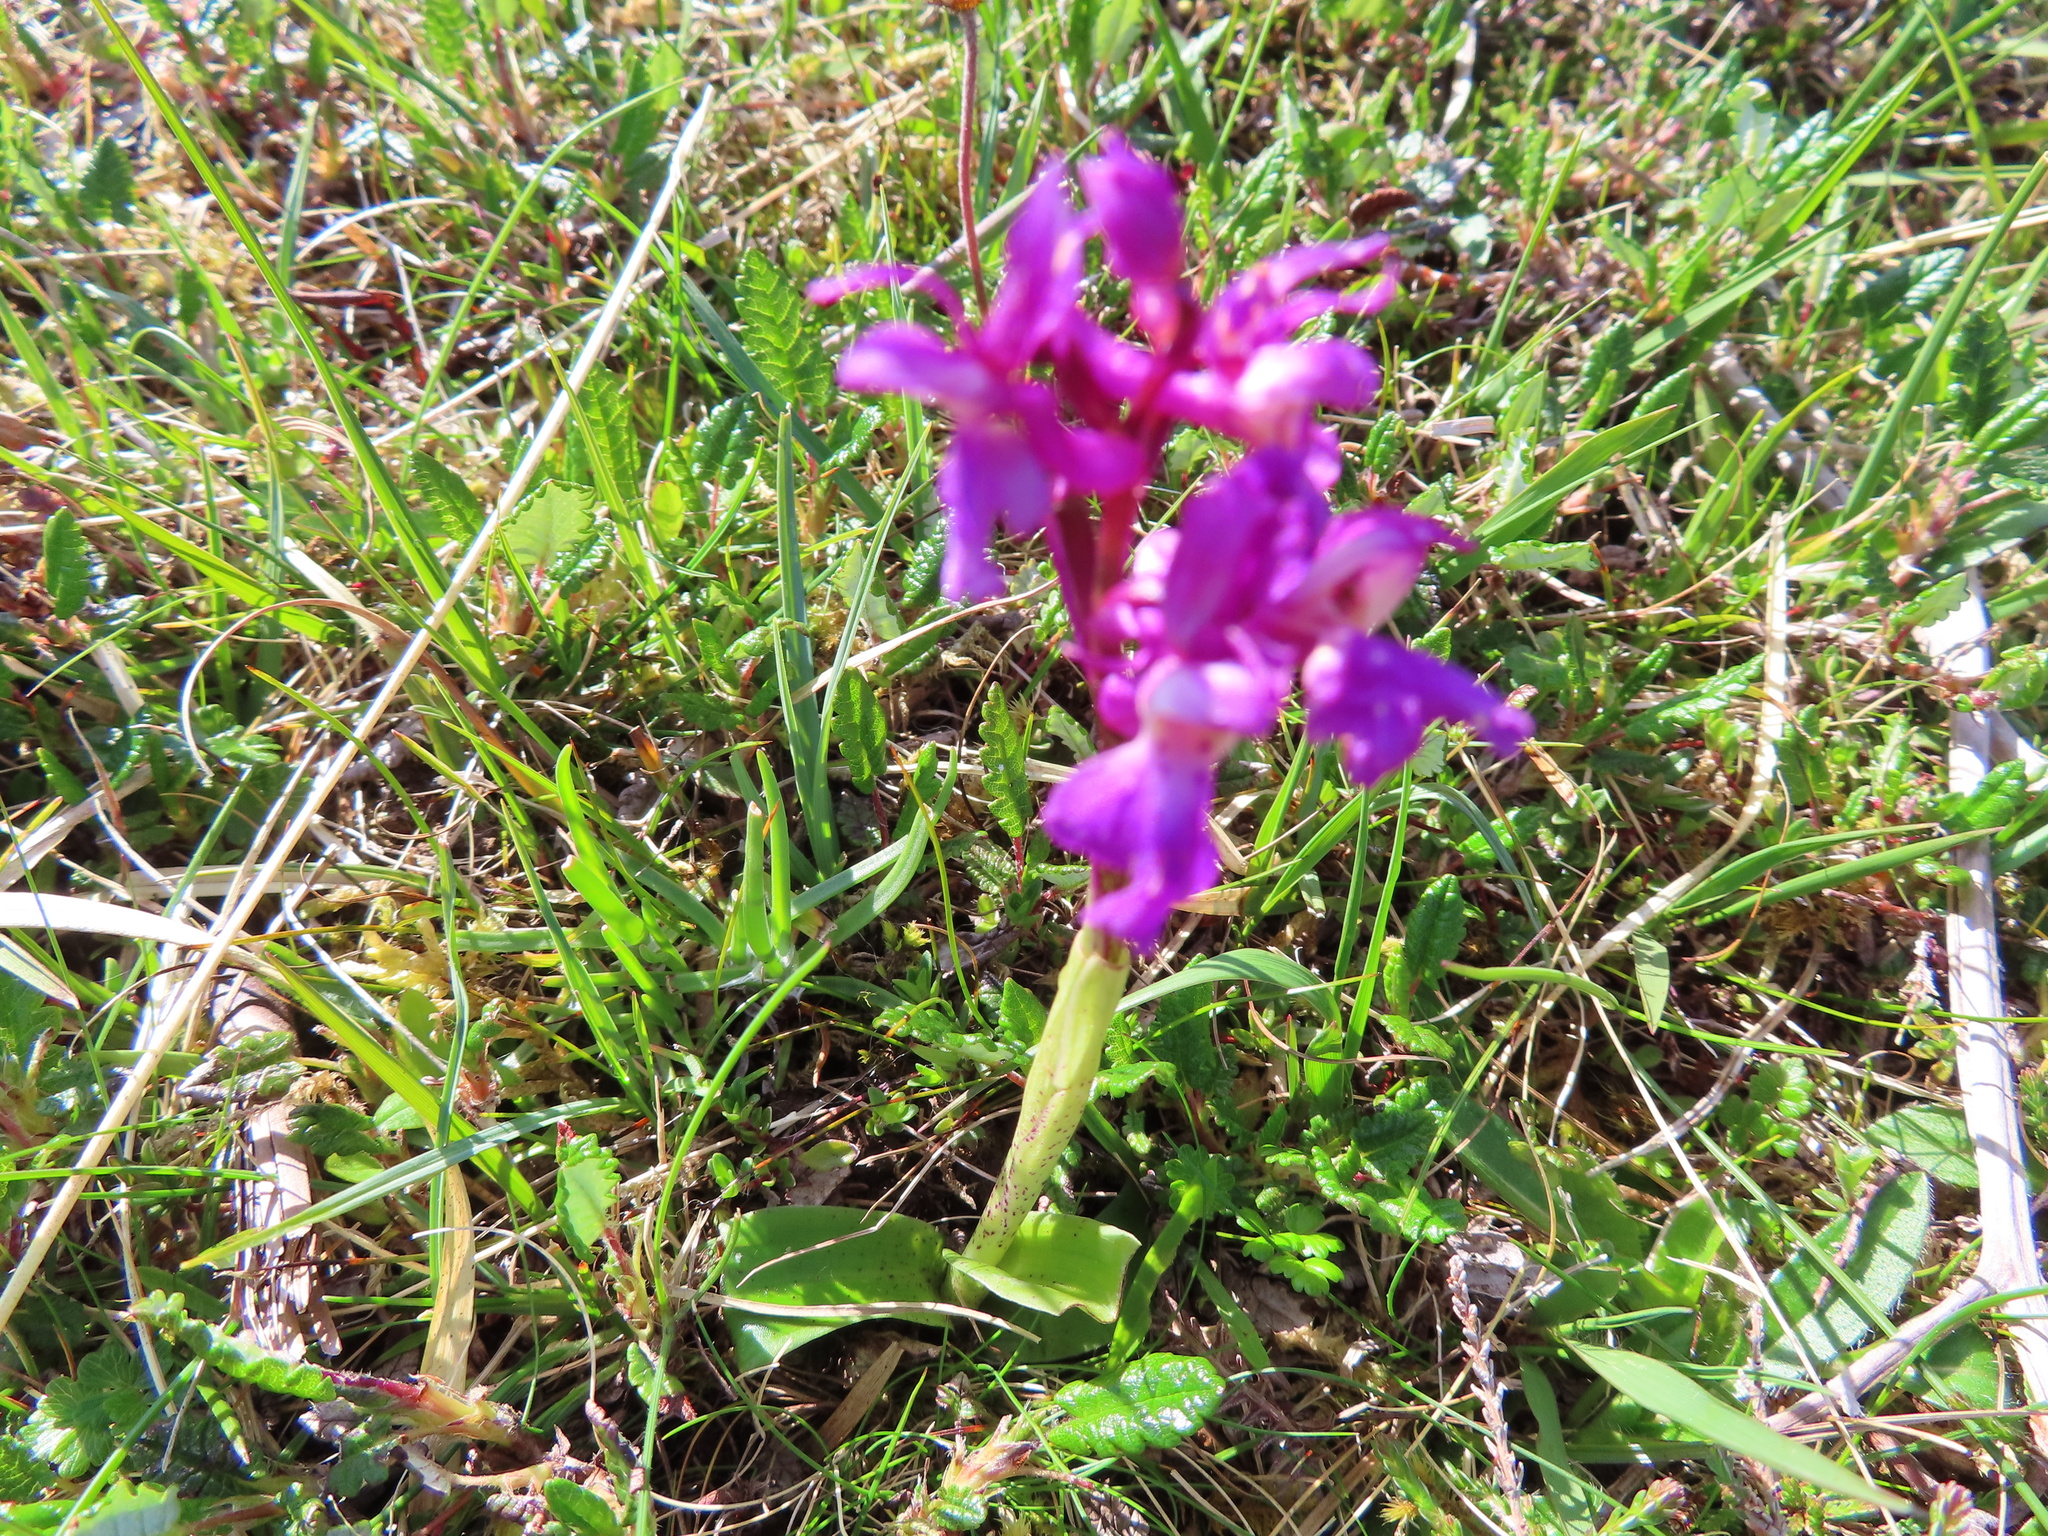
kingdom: Plantae
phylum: Tracheophyta
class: Liliopsida
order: Asparagales
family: Orchidaceae
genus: Orchis
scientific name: Orchis mascula
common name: Early-purple orchid
